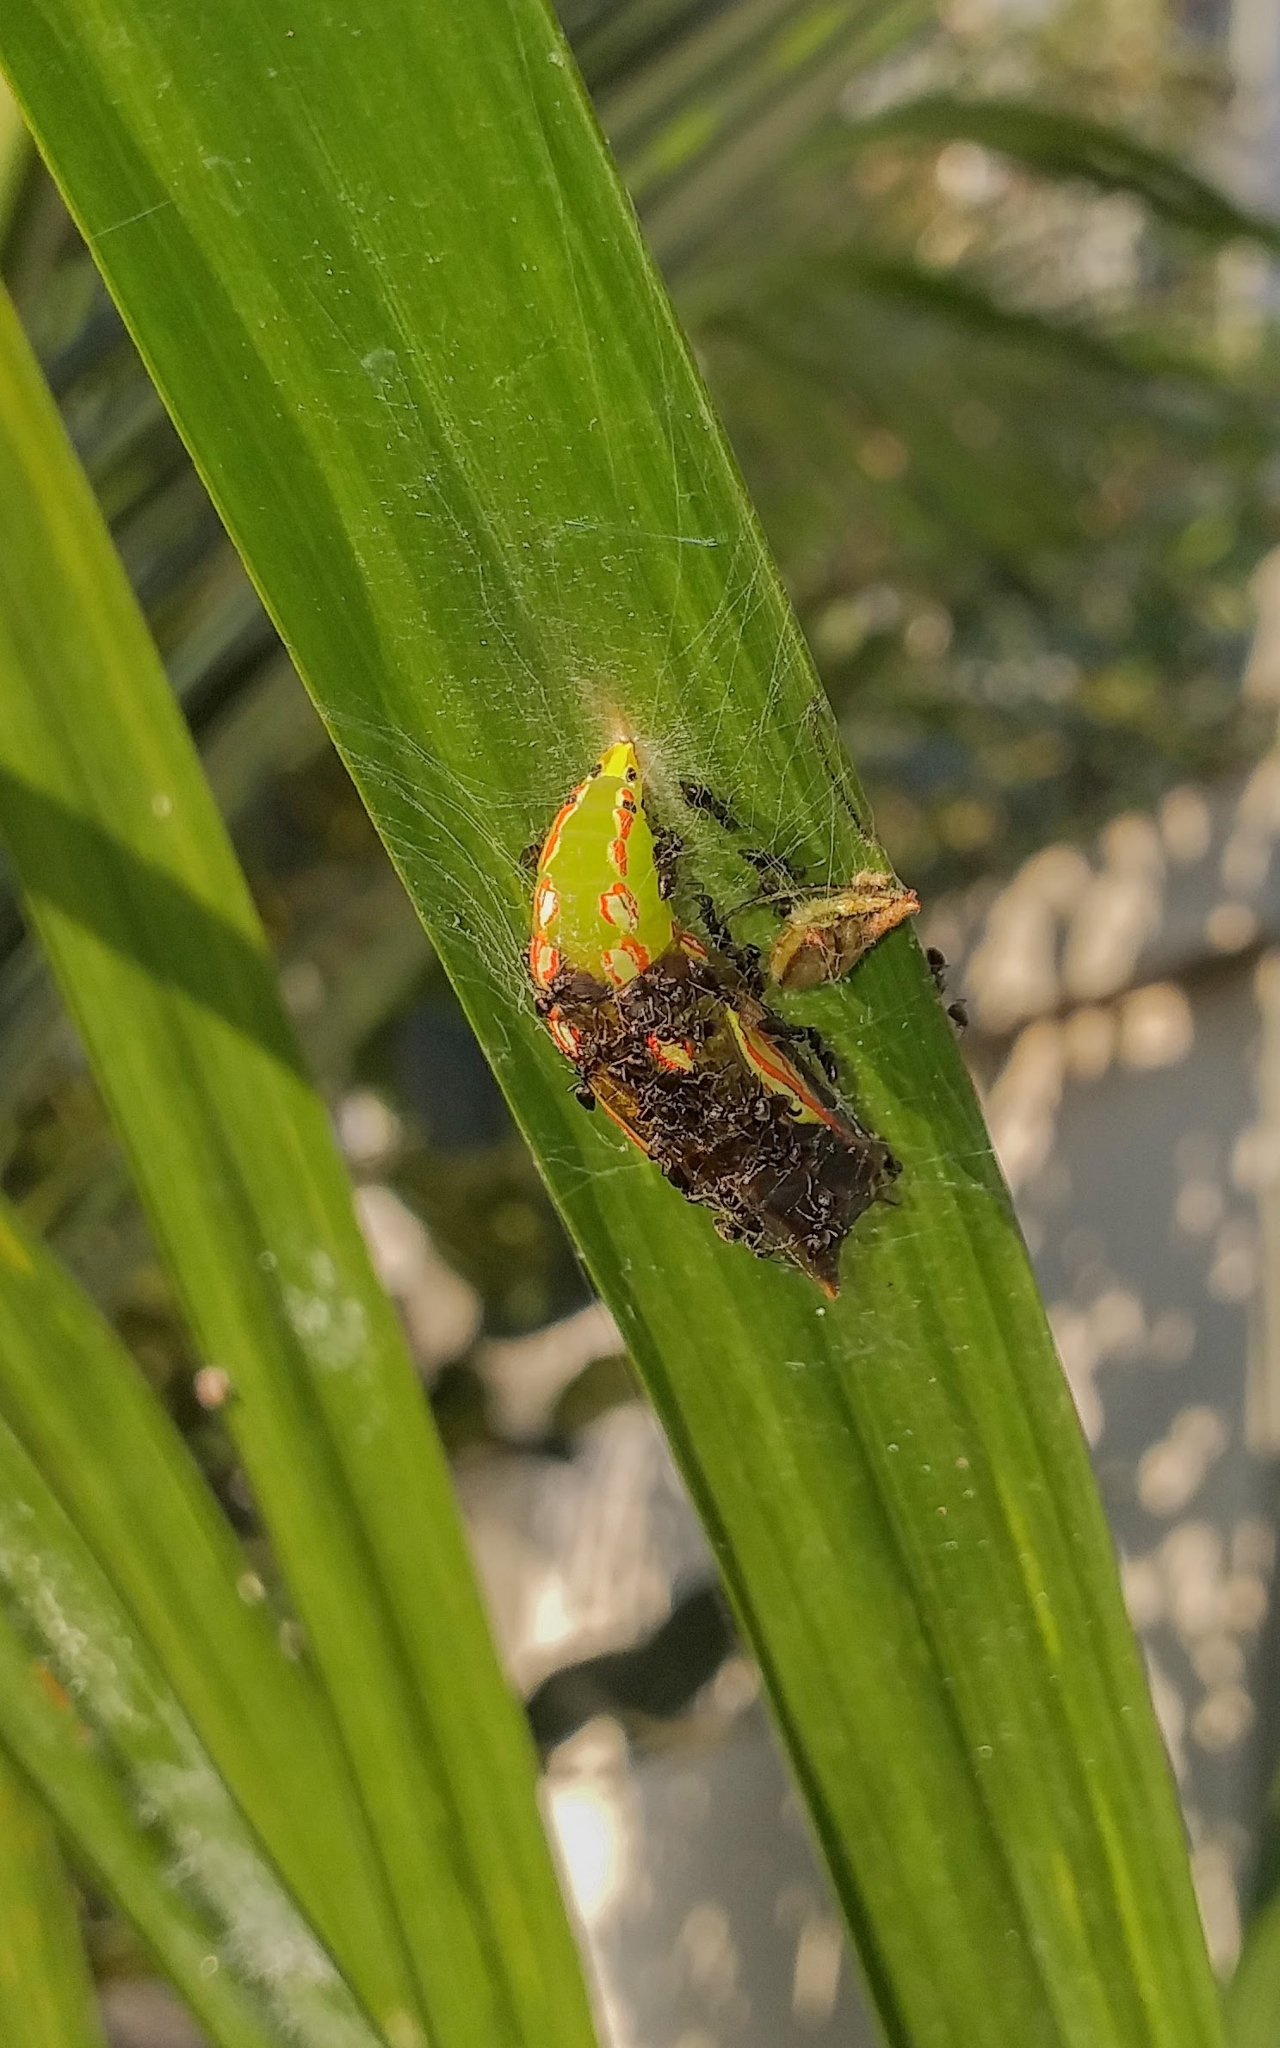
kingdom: Animalia
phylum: Arthropoda
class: Insecta
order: Lepidoptera
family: Nymphalidae
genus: Elymnias
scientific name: Elymnias caudata
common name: Tailed palmfly
